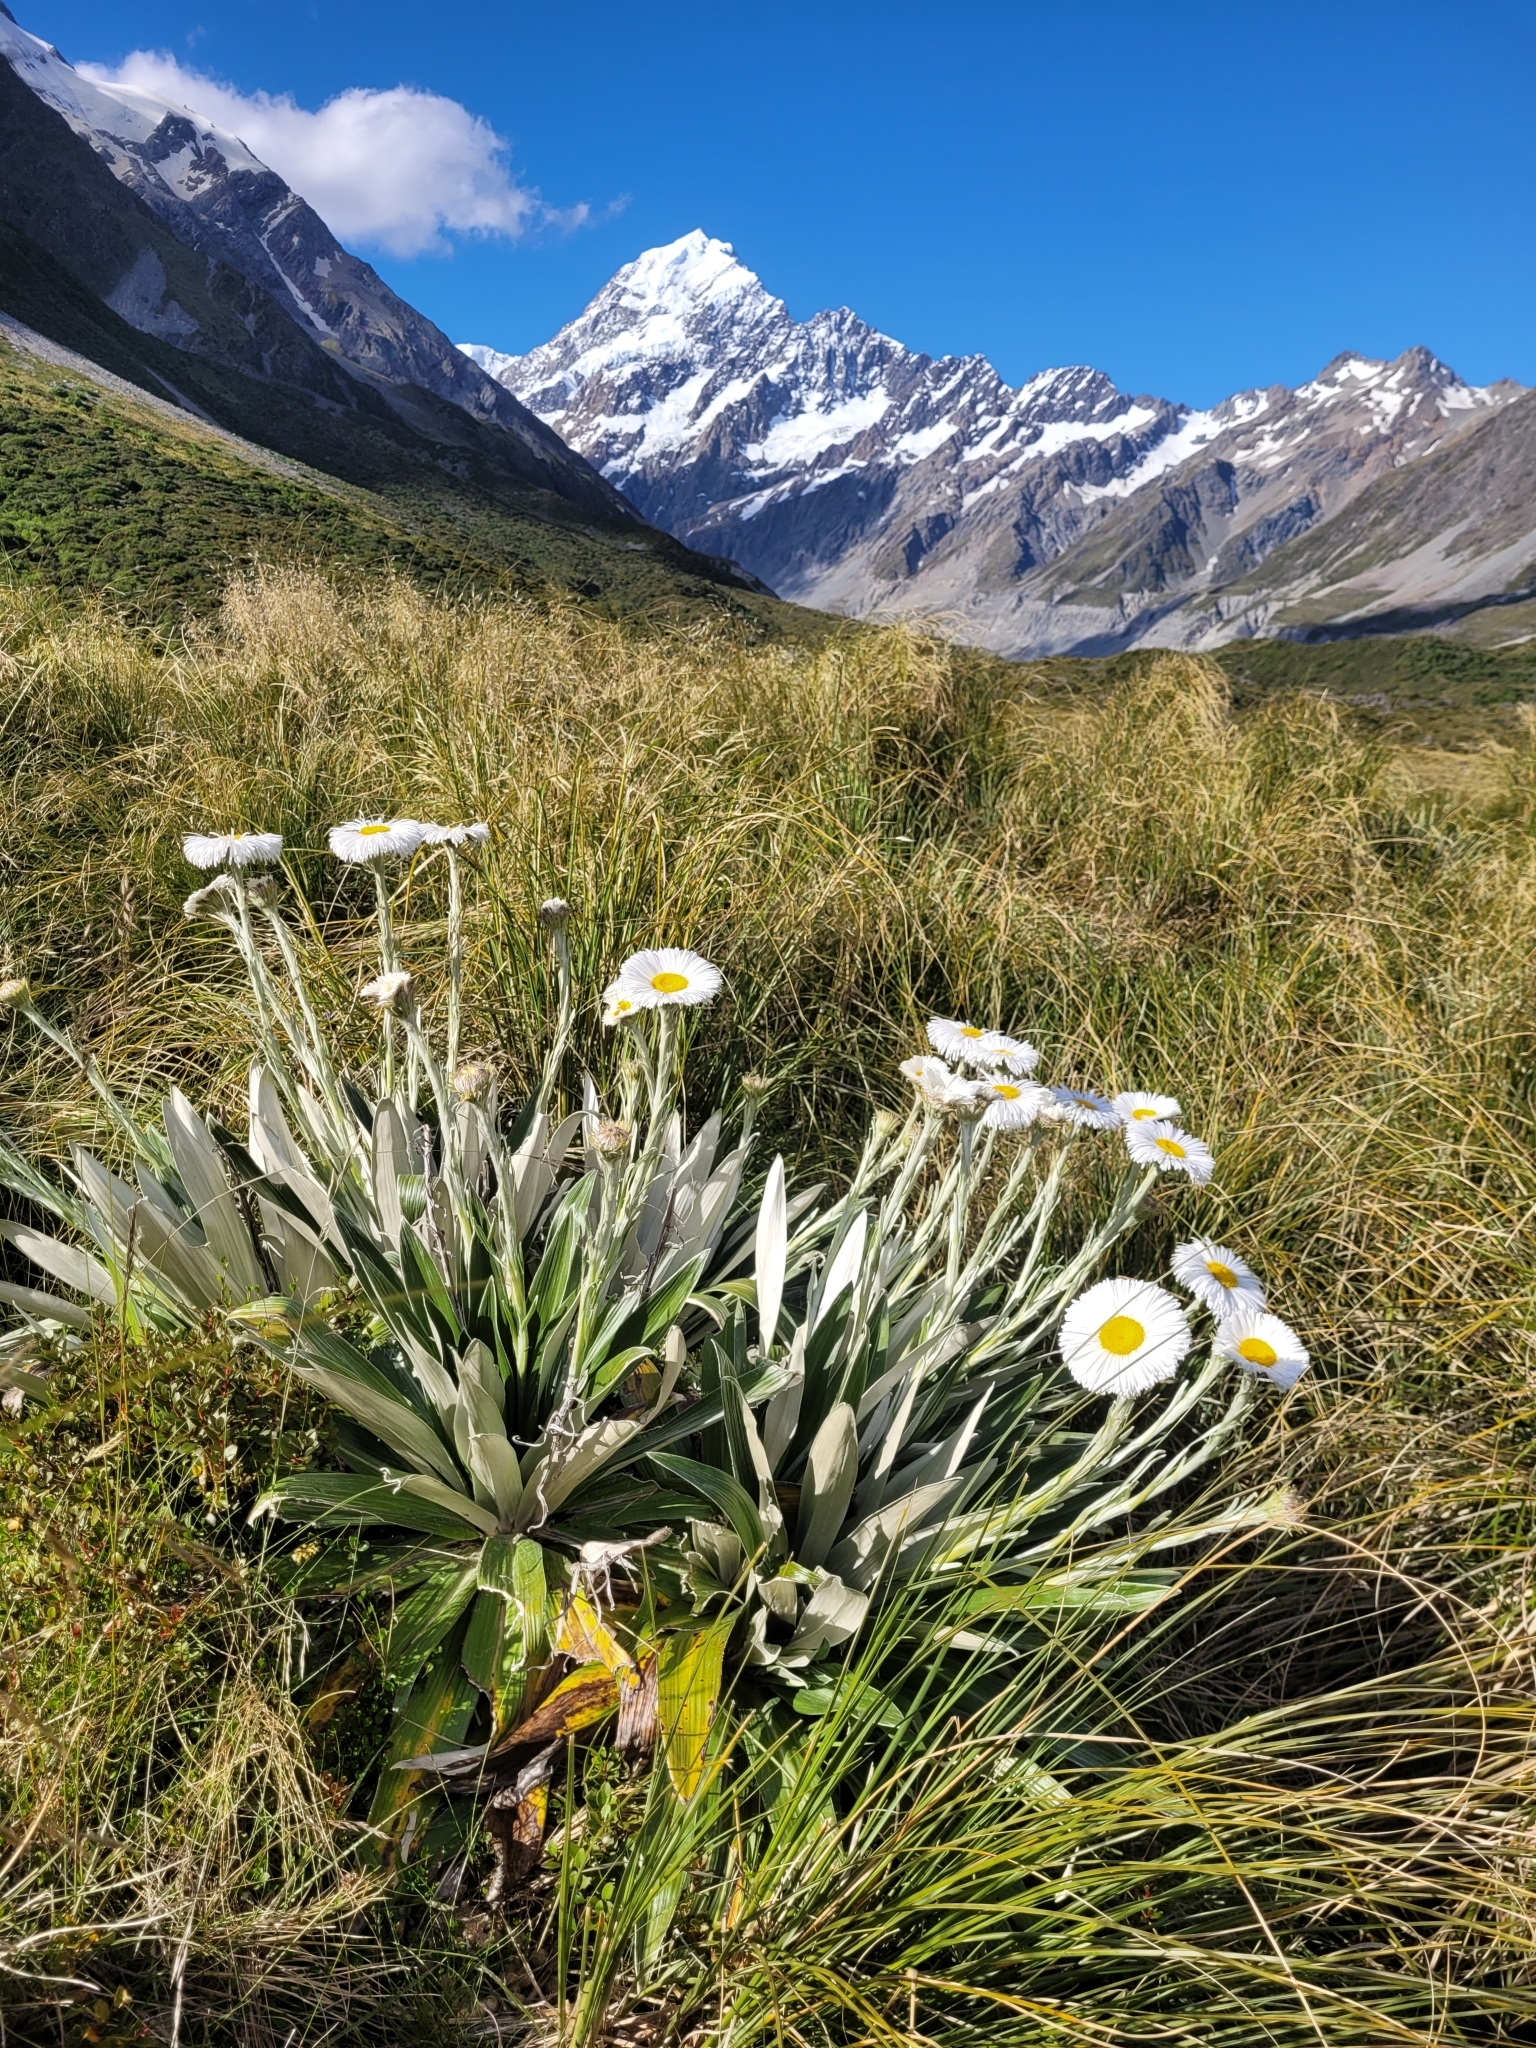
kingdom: Plantae
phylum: Tracheophyta
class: Magnoliopsida
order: Asterales
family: Asteraceae
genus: Celmisia
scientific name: Celmisia semicordata
